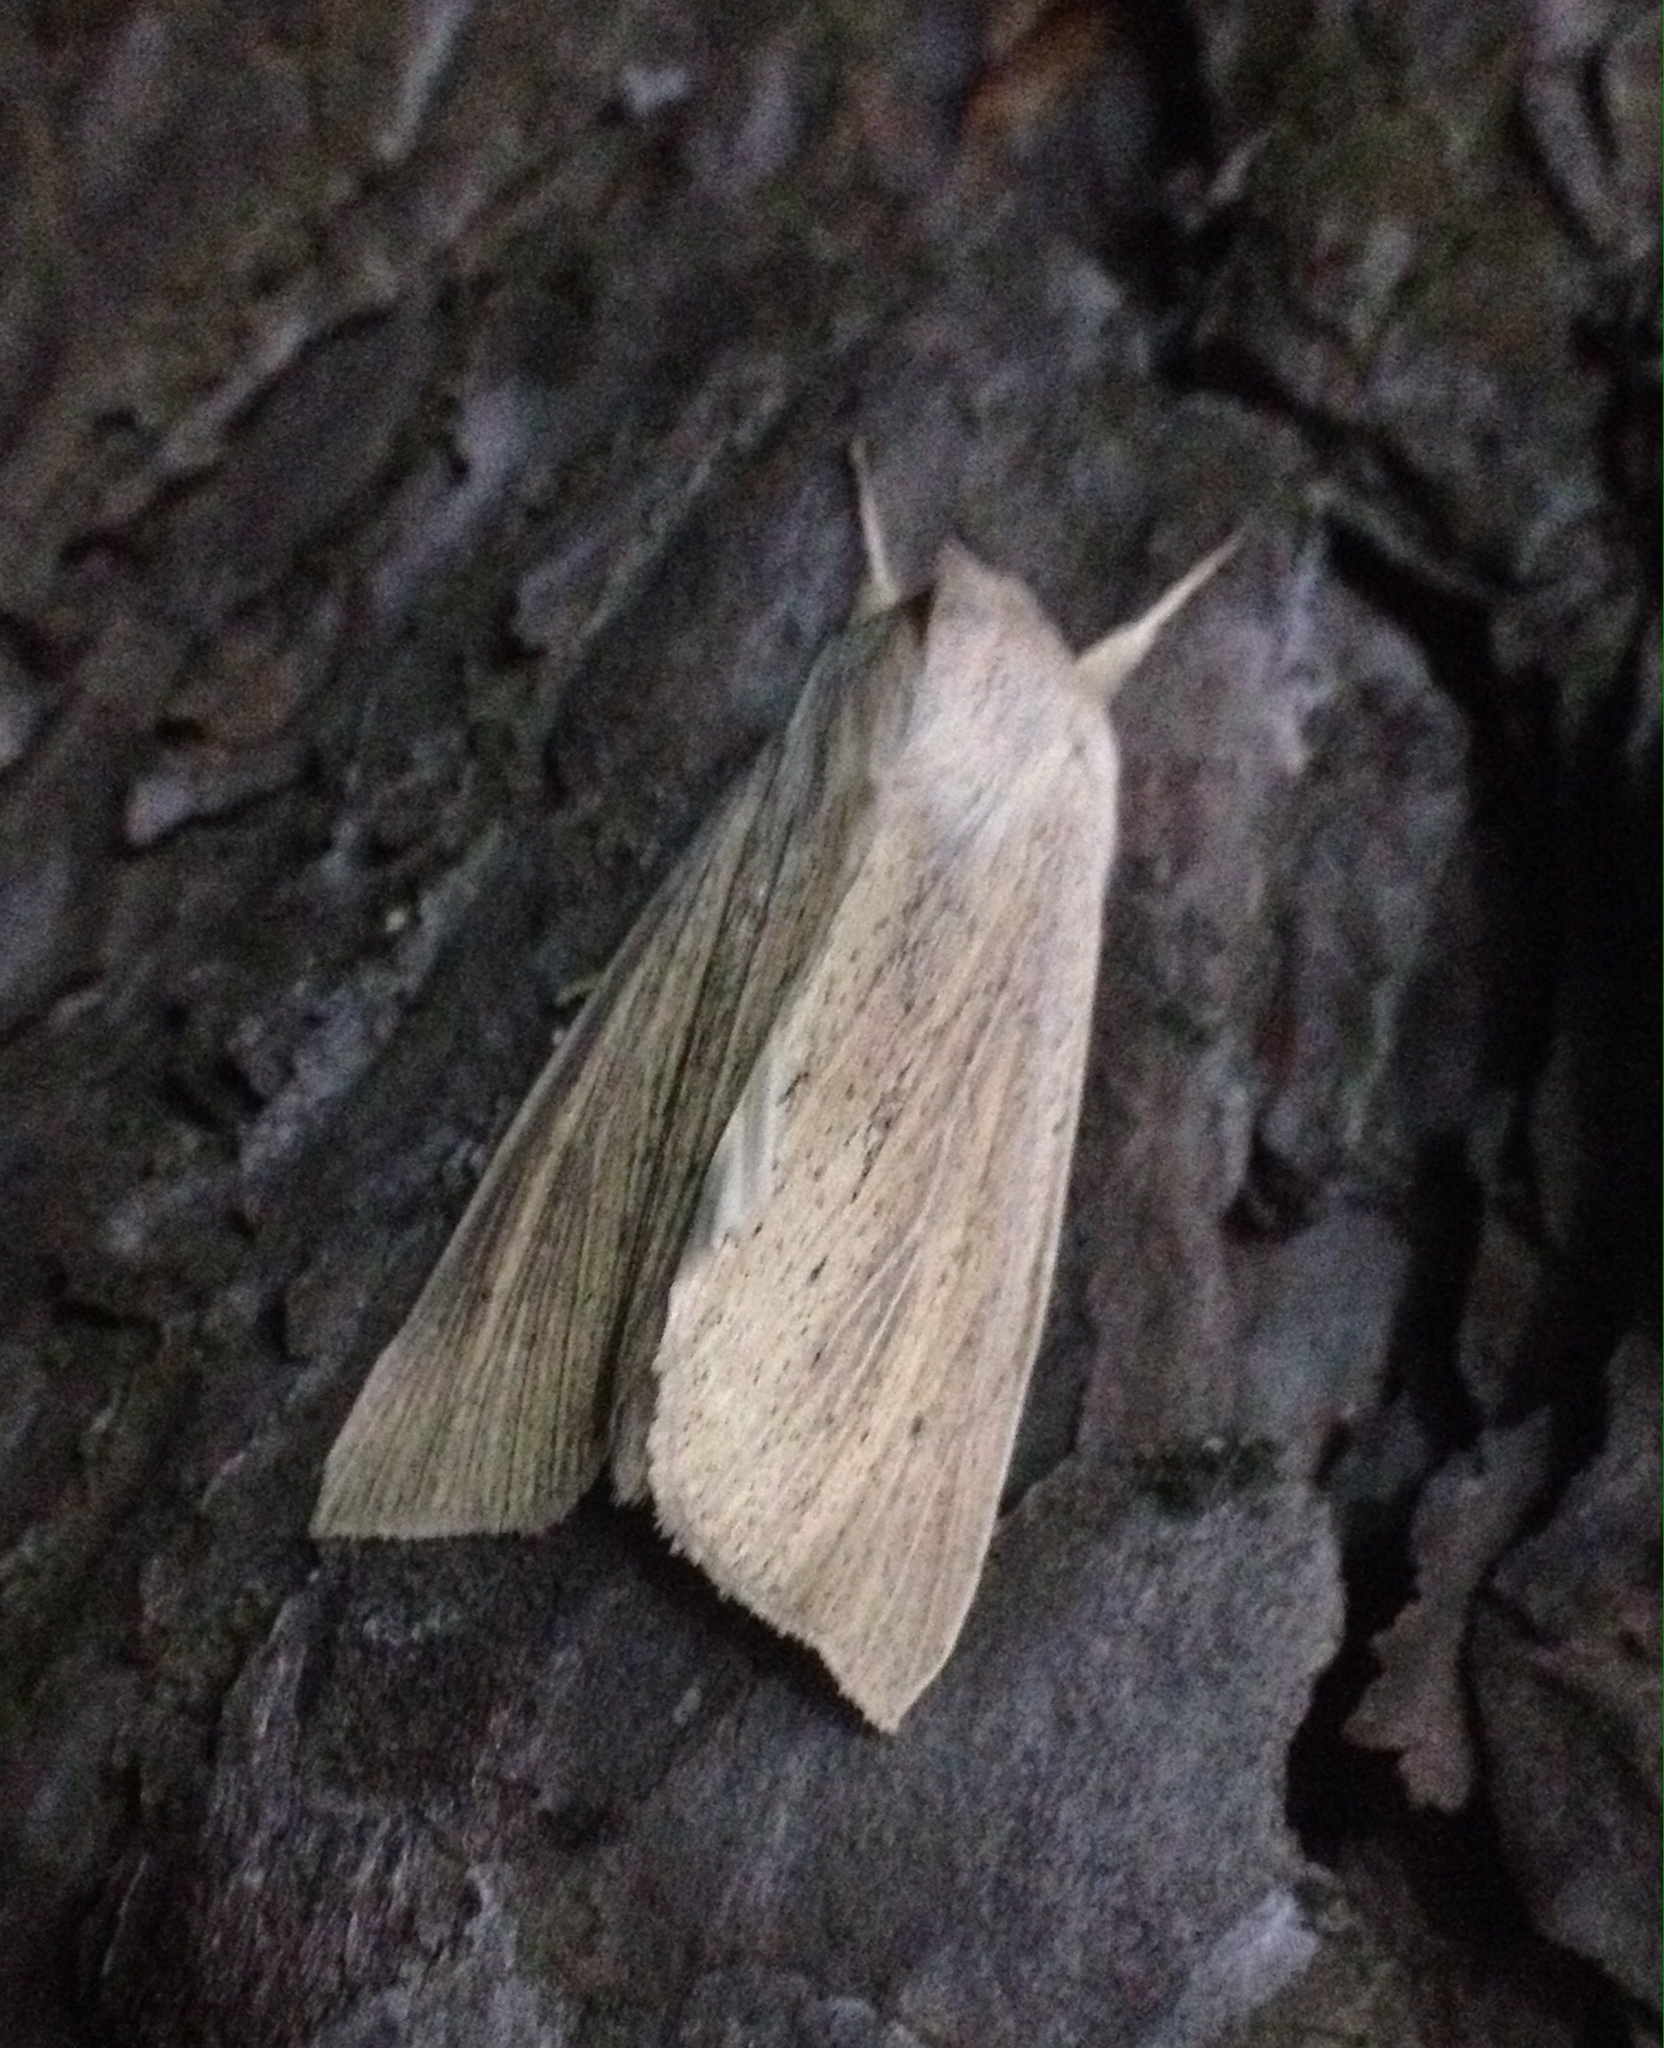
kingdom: Animalia
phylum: Arthropoda
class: Insecta
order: Lepidoptera
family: Noctuidae
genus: Rhizedra
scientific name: Rhizedra lutosa
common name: Large wainscot
